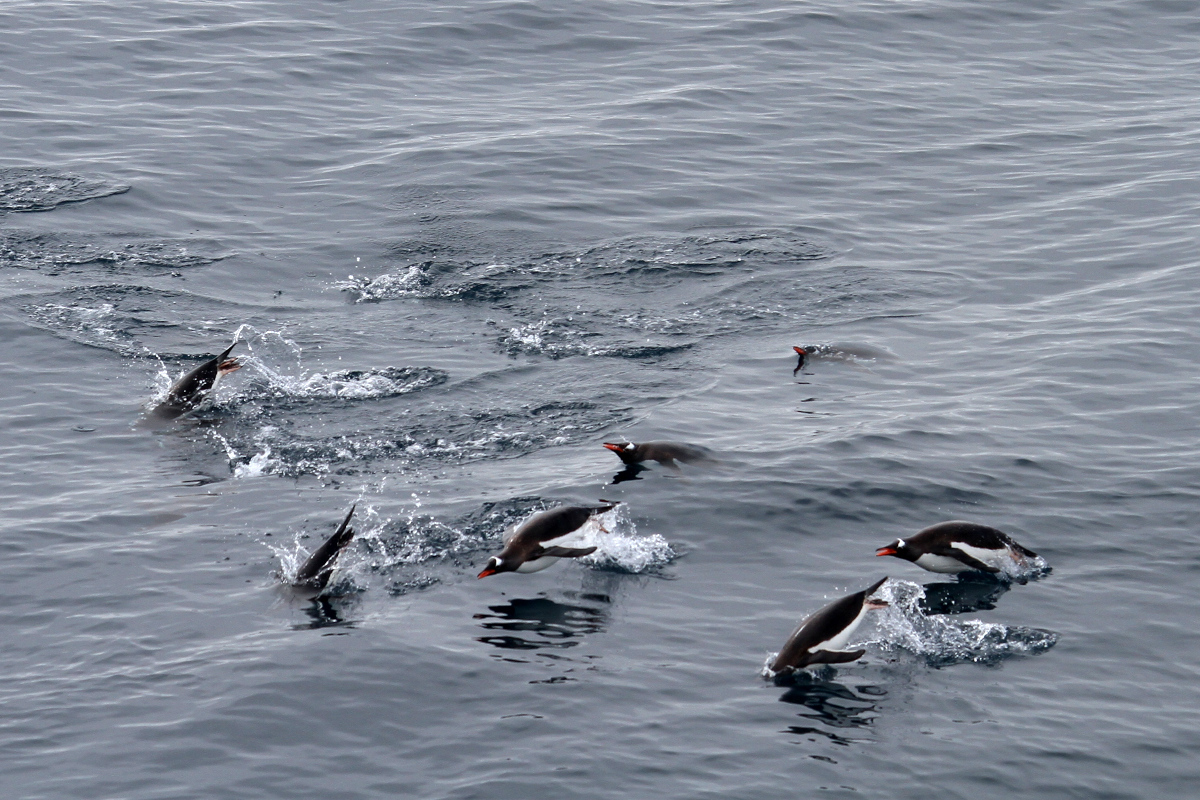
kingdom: Animalia
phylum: Chordata
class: Aves
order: Sphenisciformes
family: Spheniscidae
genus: Pygoscelis
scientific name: Pygoscelis papua
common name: Gentoo penguin
